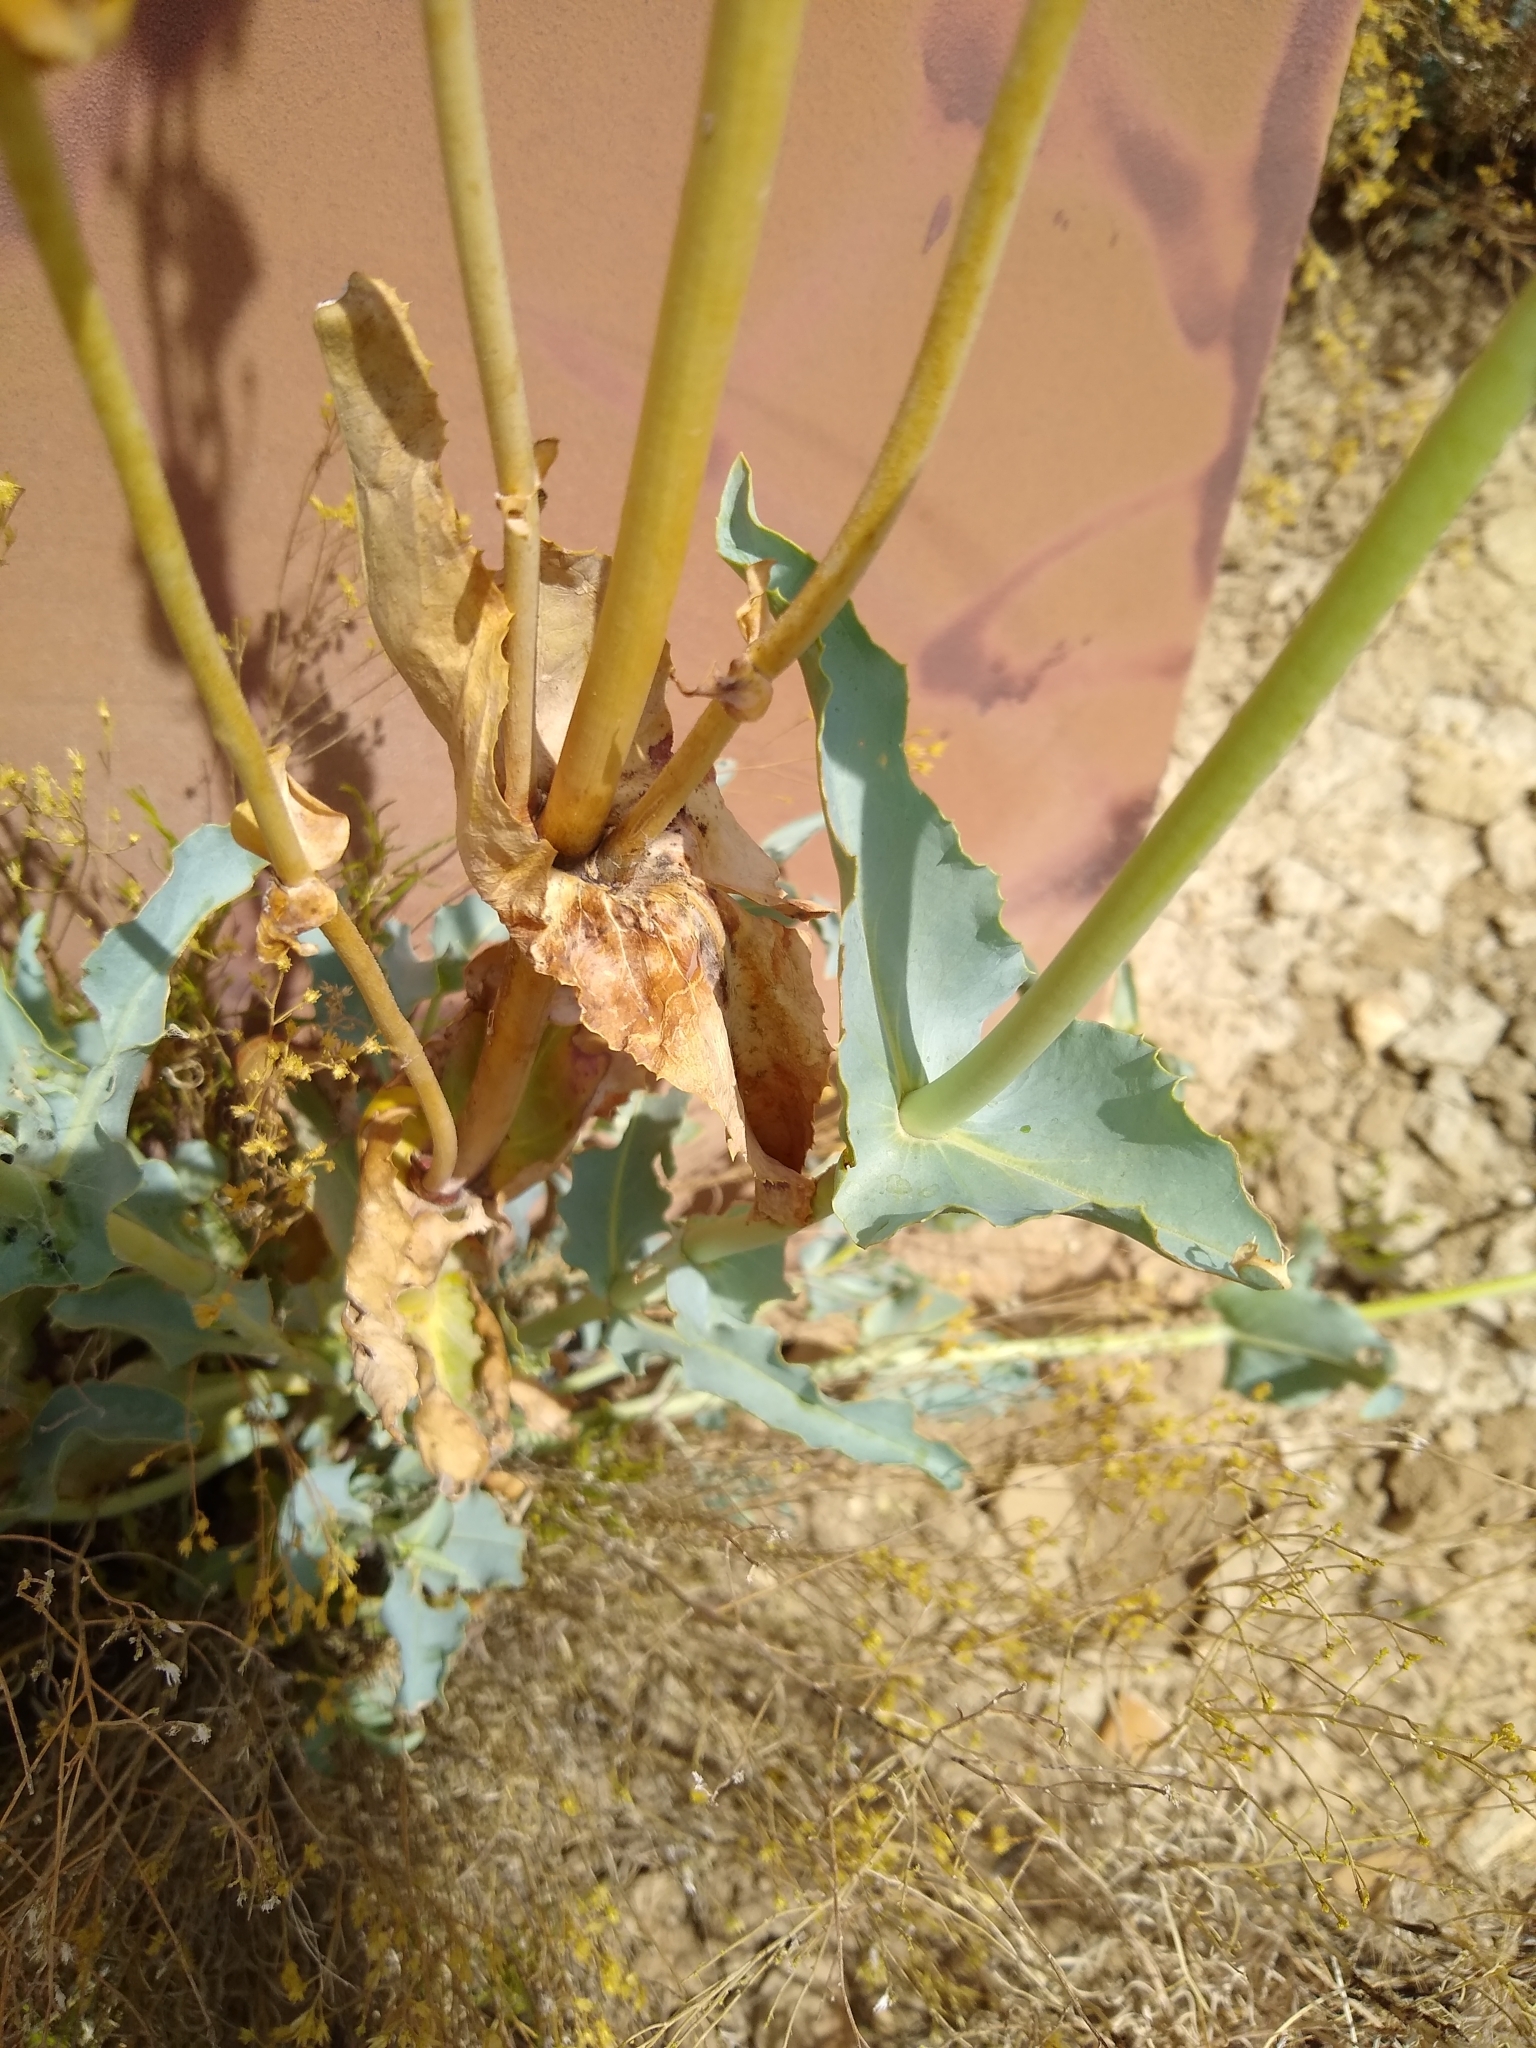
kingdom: Plantae
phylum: Tracheophyta
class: Magnoliopsida
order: Lamiales
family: Plantaginaceae
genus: Penstemon
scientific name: Penstemon palmeri
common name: Palmer penstemon
